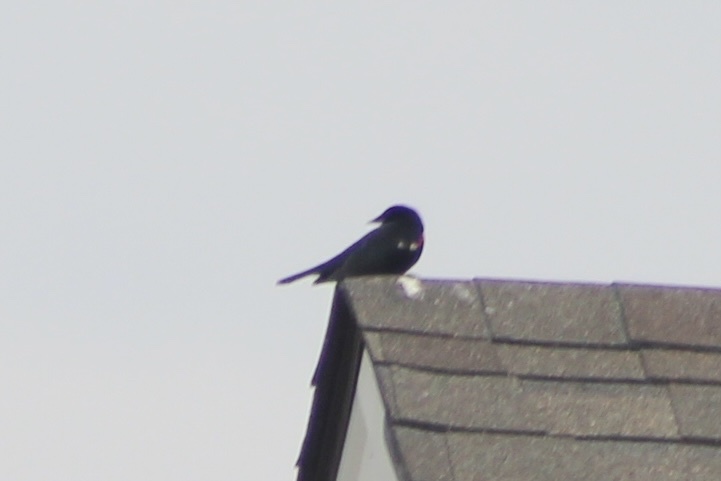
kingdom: Animalia
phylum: Chordata
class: Aves
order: Passeriformes
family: Icteridae
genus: Agelaius
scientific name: Agelaius phoeniceus
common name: Red-winged blackbird
